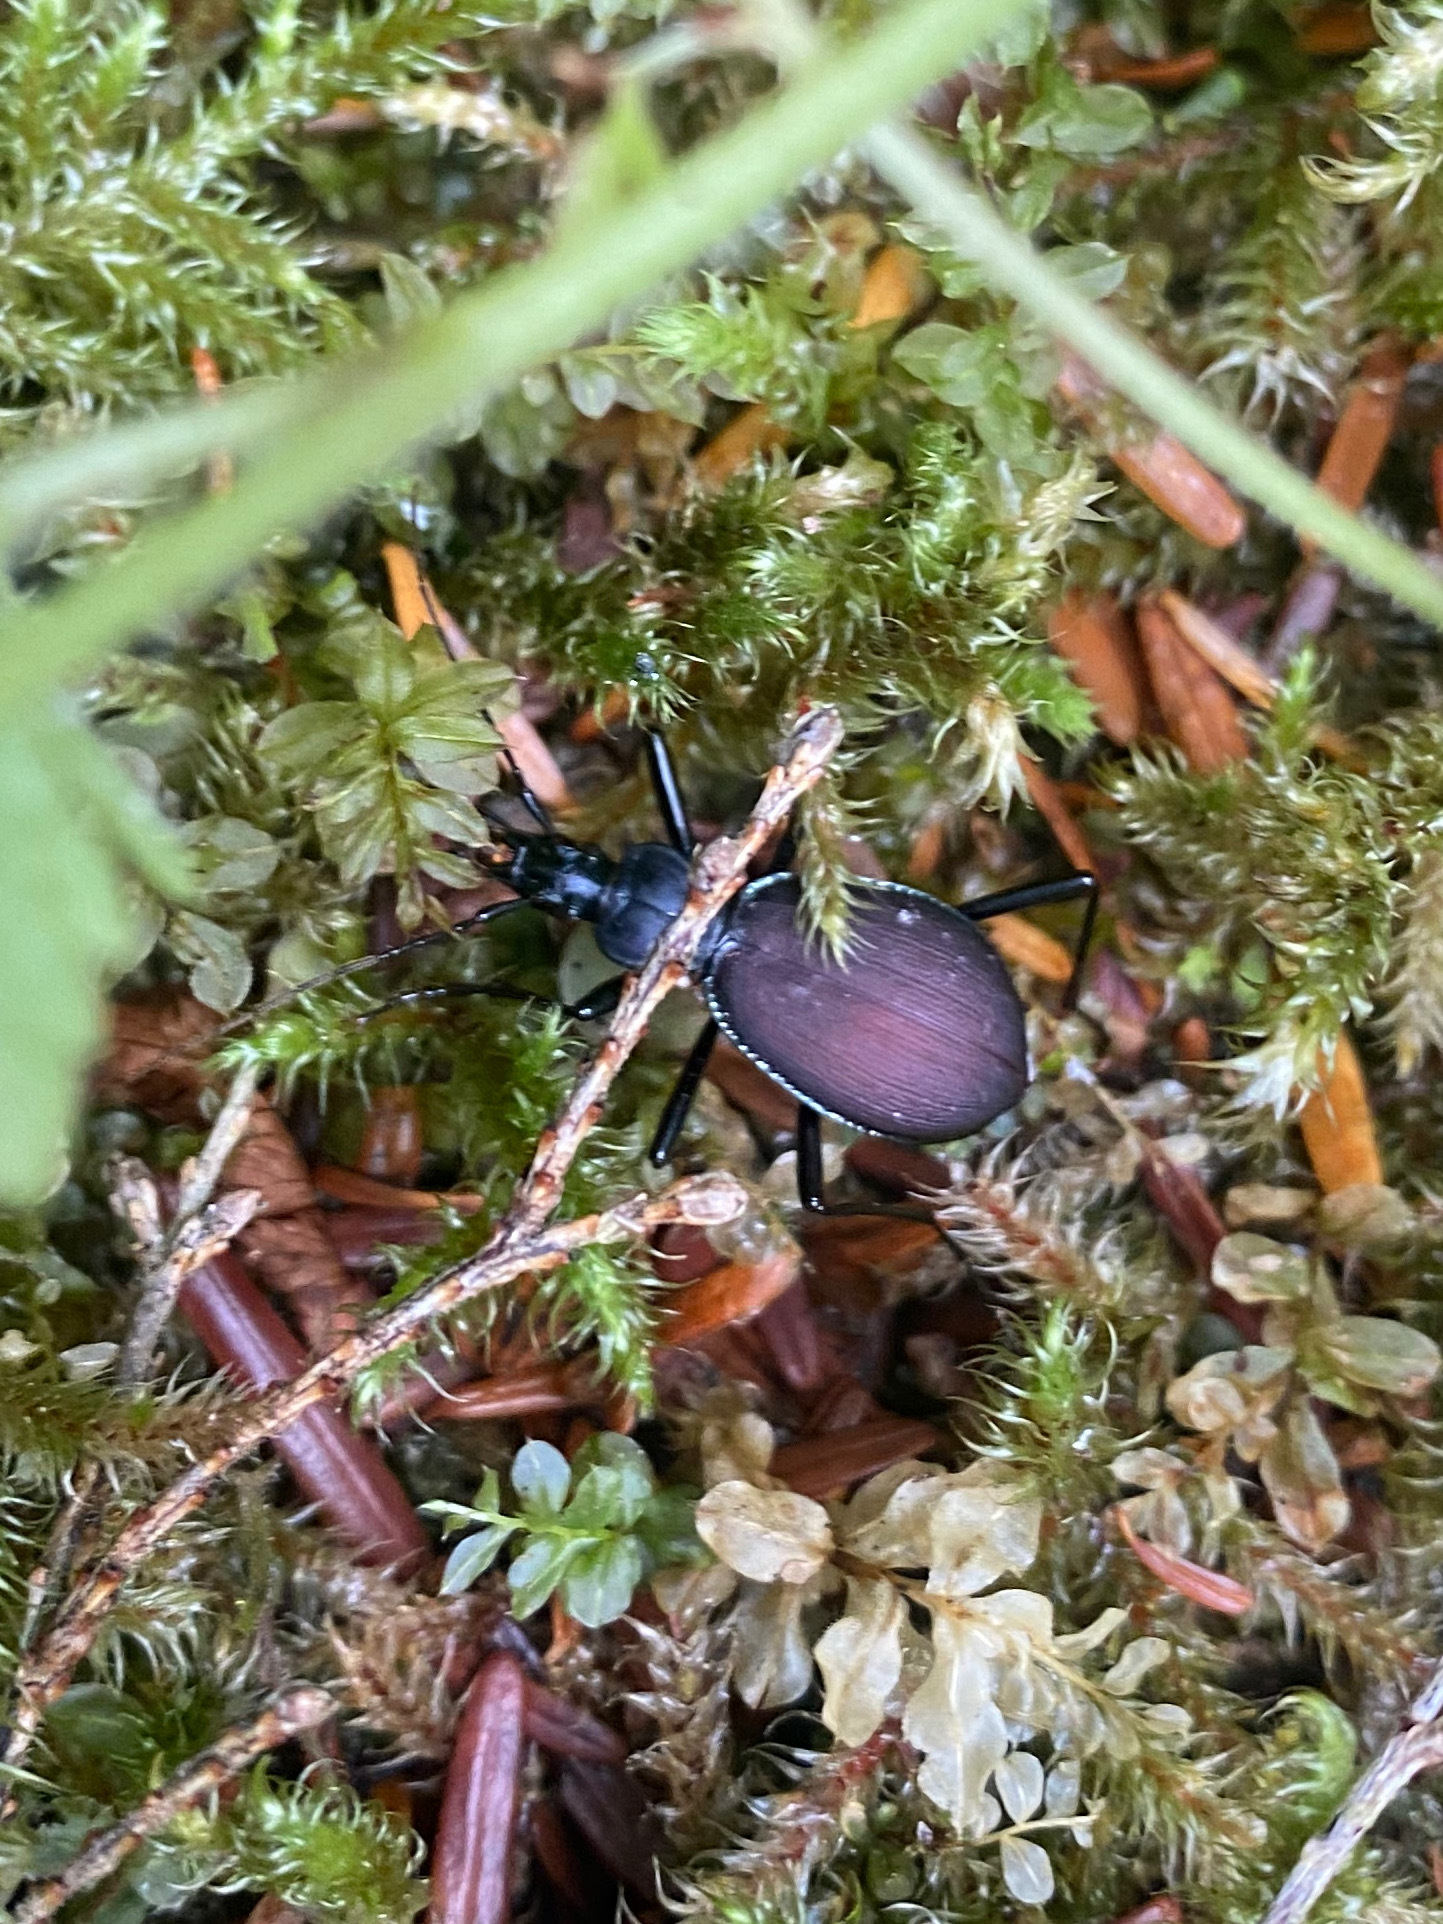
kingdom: Animalia
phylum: Arthropoda
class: Insecta
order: Coleoptera
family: Carabidae
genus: Scaphinotus
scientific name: Scaphinotus angusticollis
